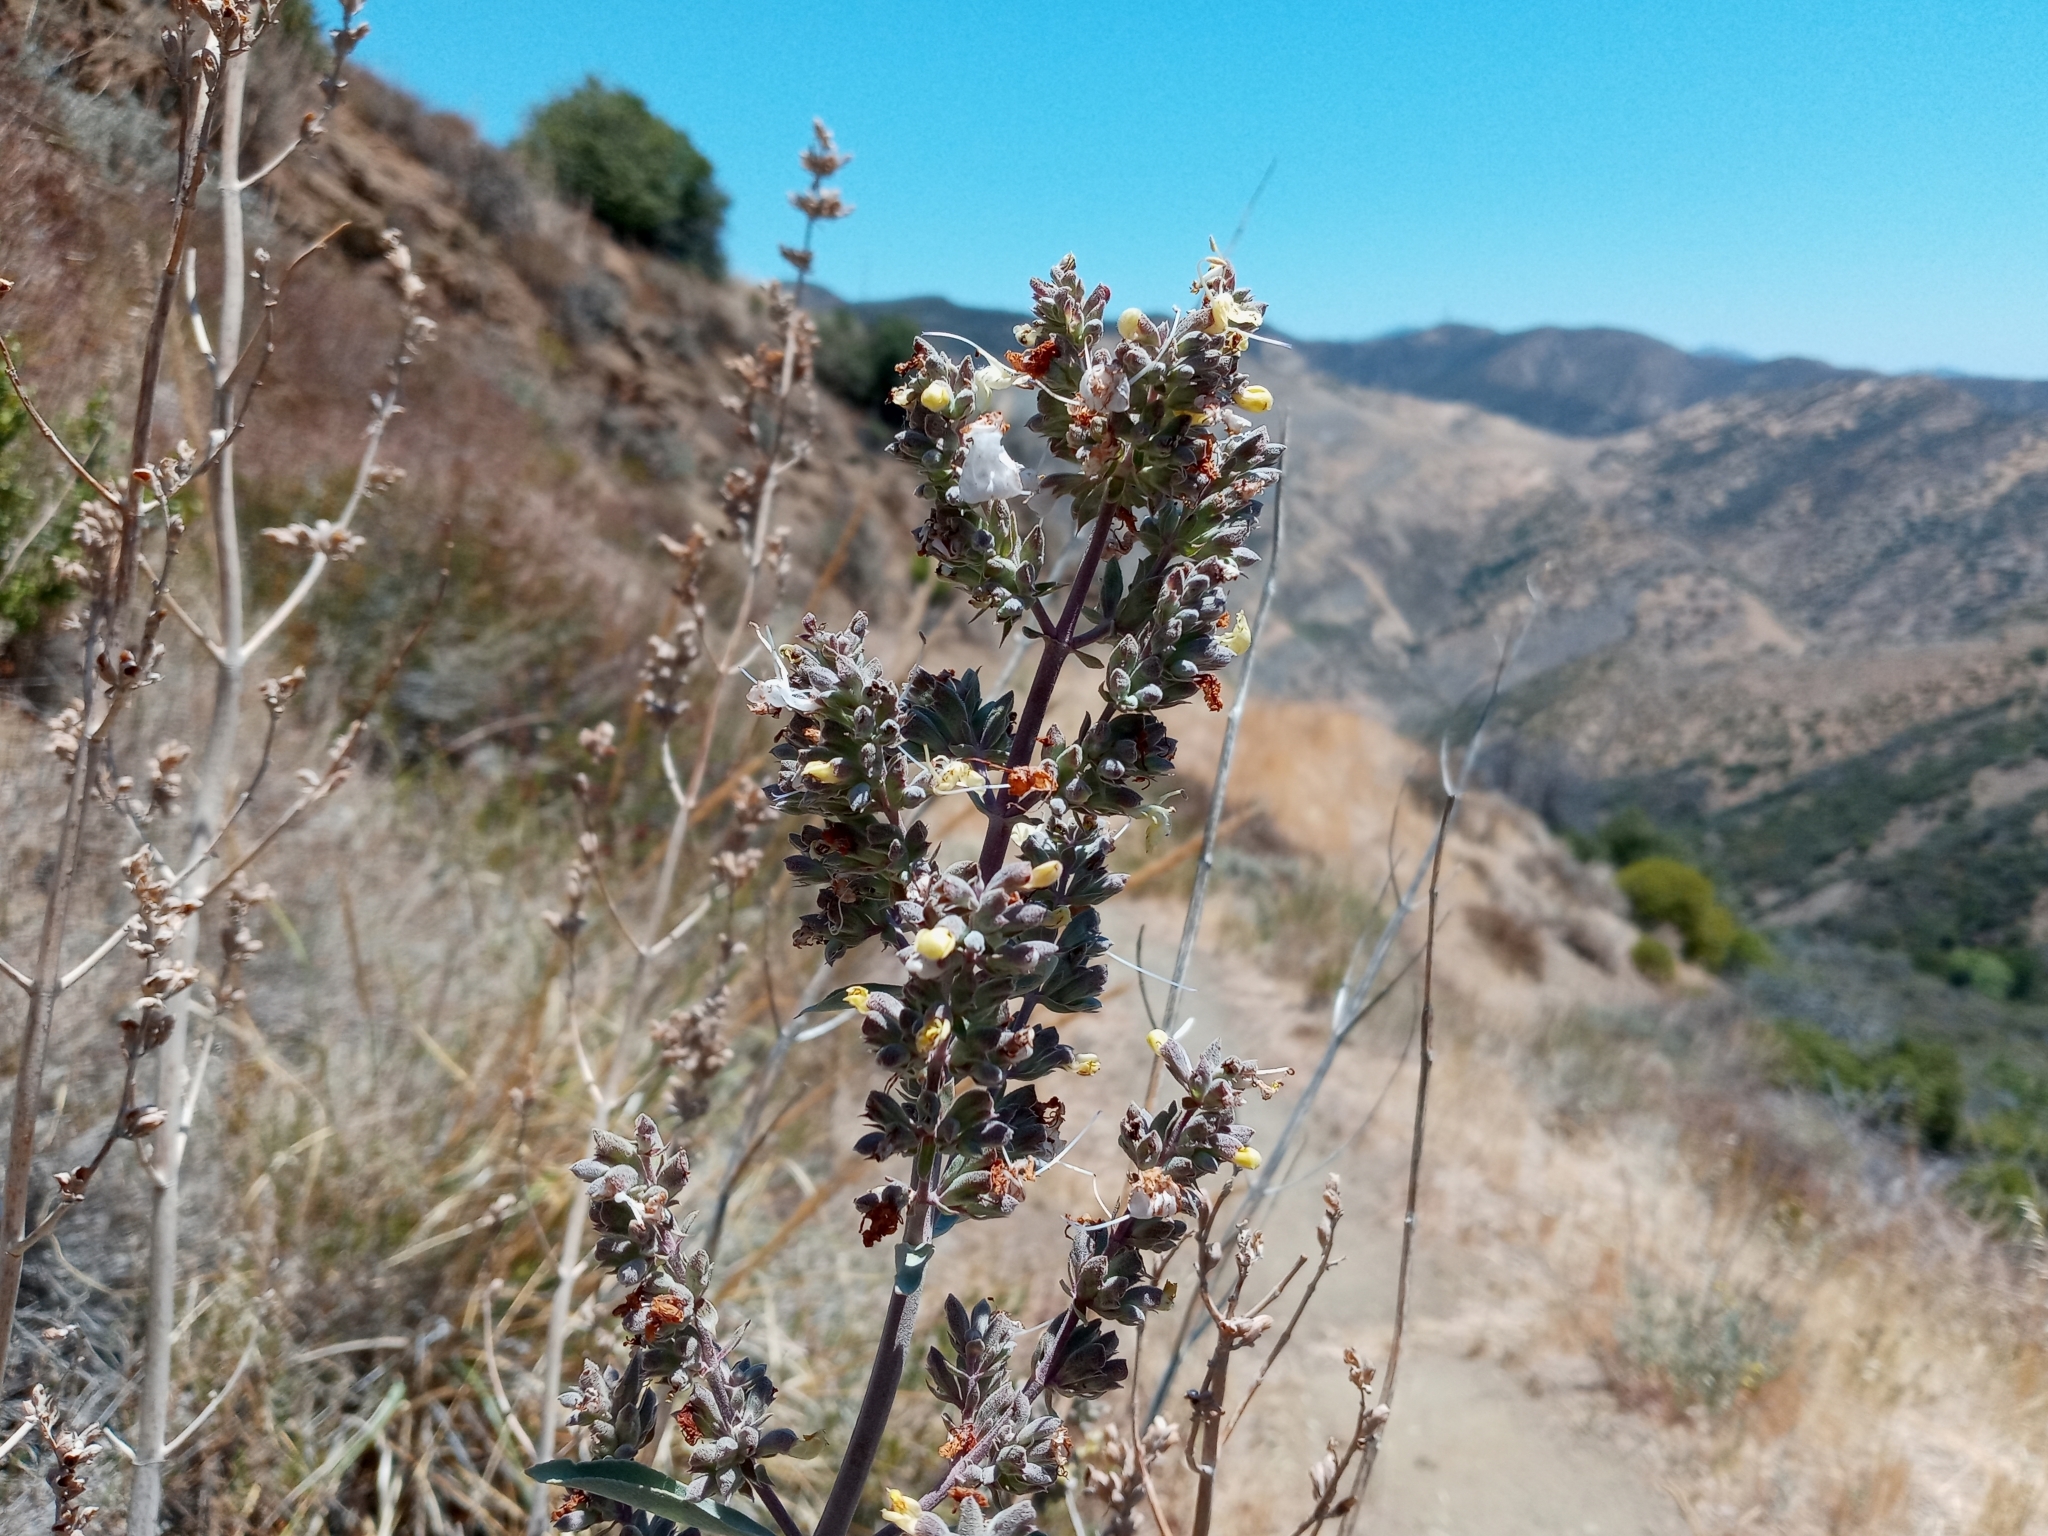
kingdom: Plantae
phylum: Tracheophyta
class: Magnoliopsida
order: Lamiales
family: Lamiaceae
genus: Salvia
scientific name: Salvia apiana
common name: White sage
